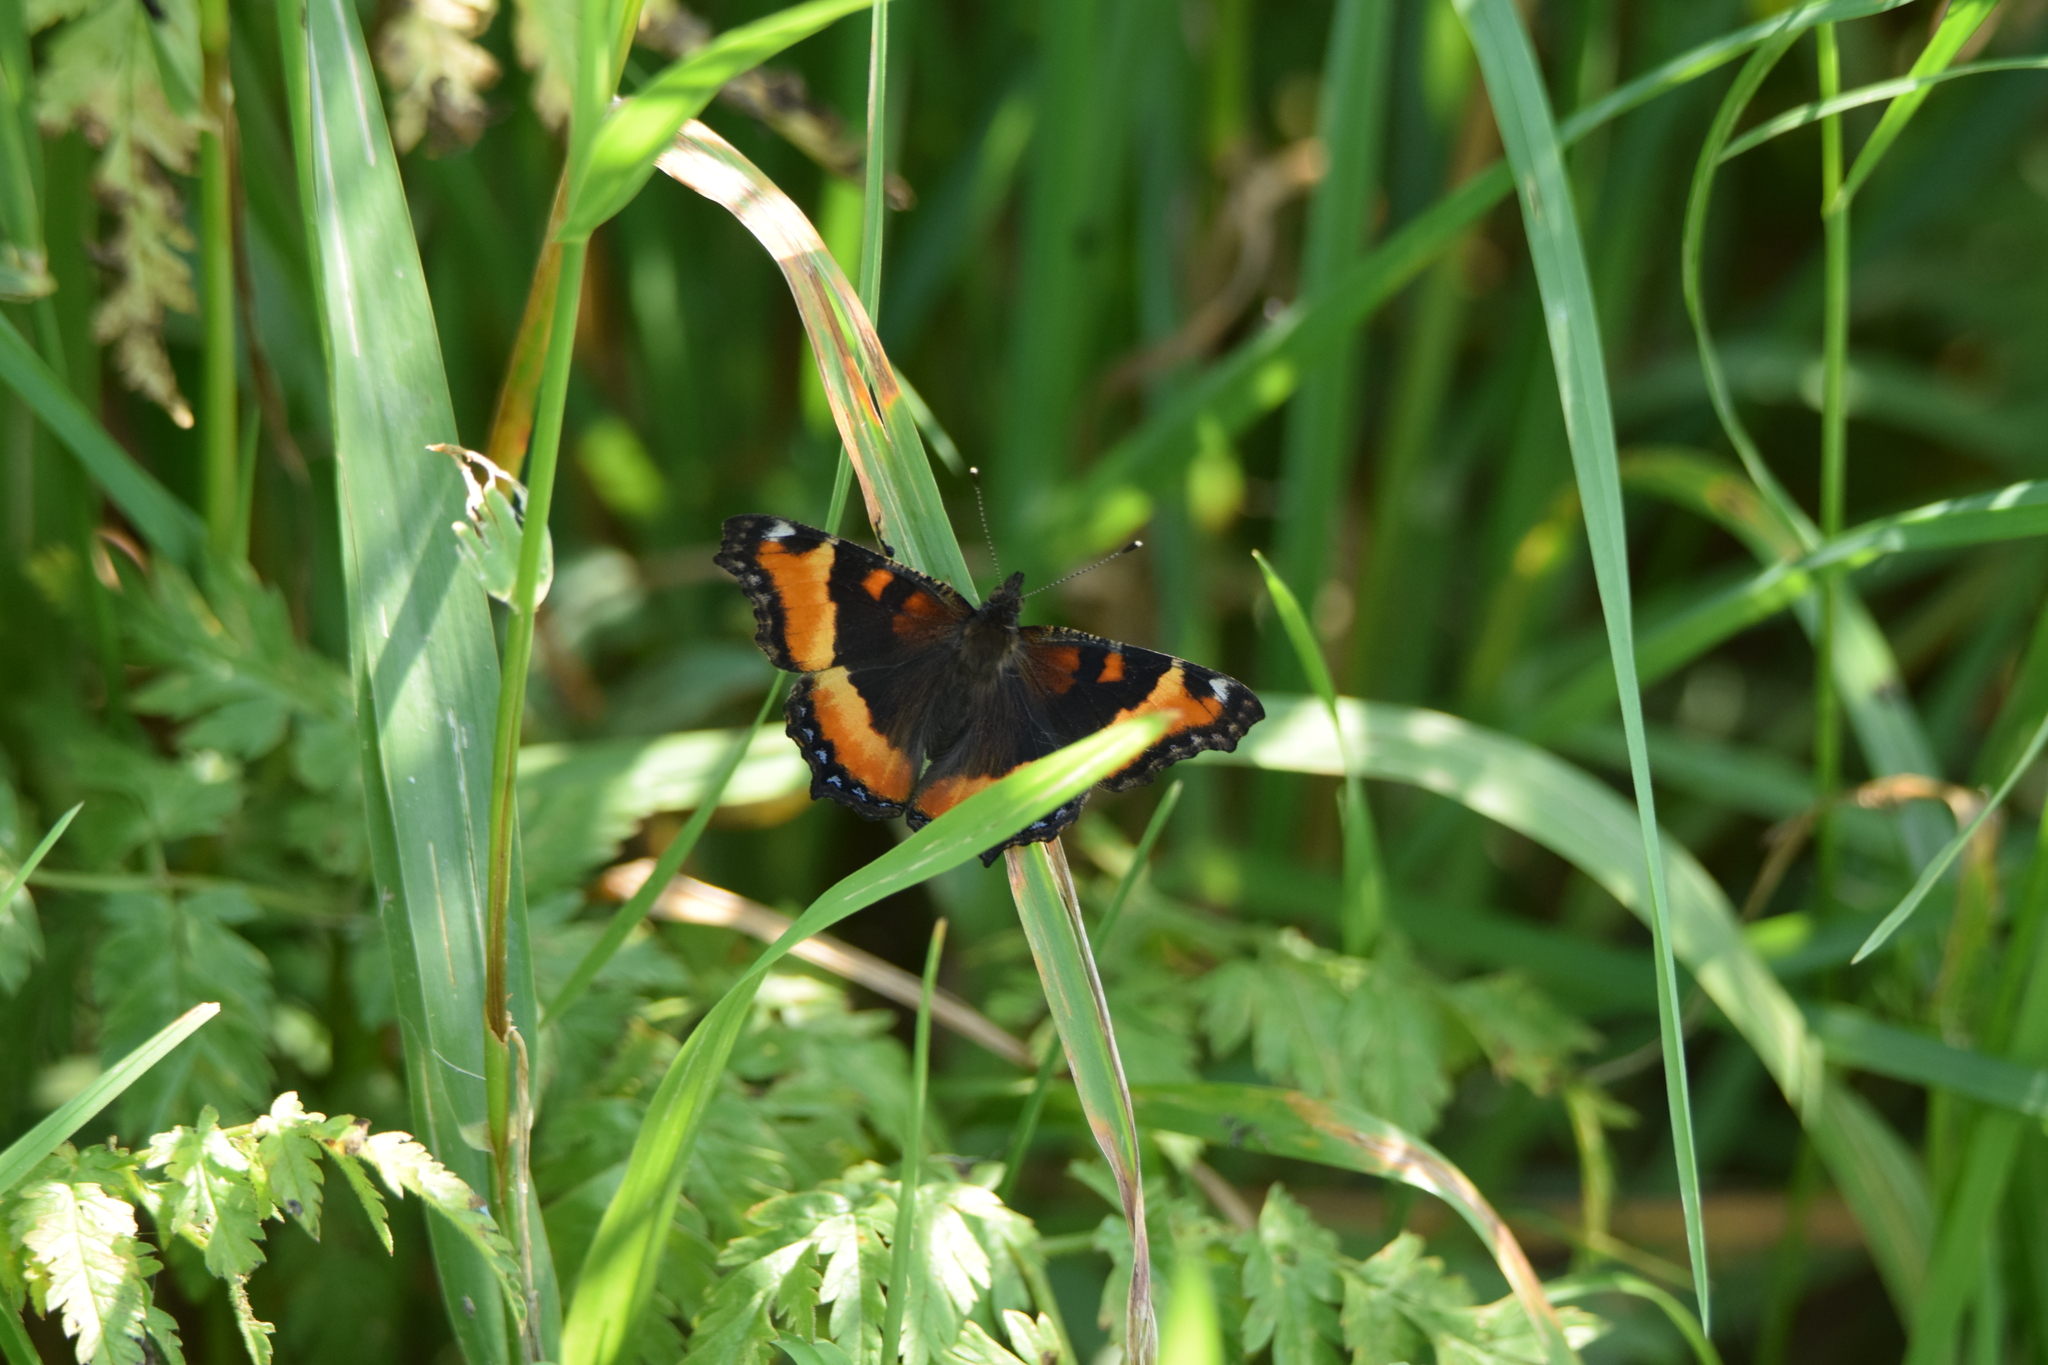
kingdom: Animalia
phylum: Arthropoda
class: Insecta
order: Lepidoptera
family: Nymphalidae
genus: Aglais
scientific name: Aglais milberti
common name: Milbert's tortoiseshell
